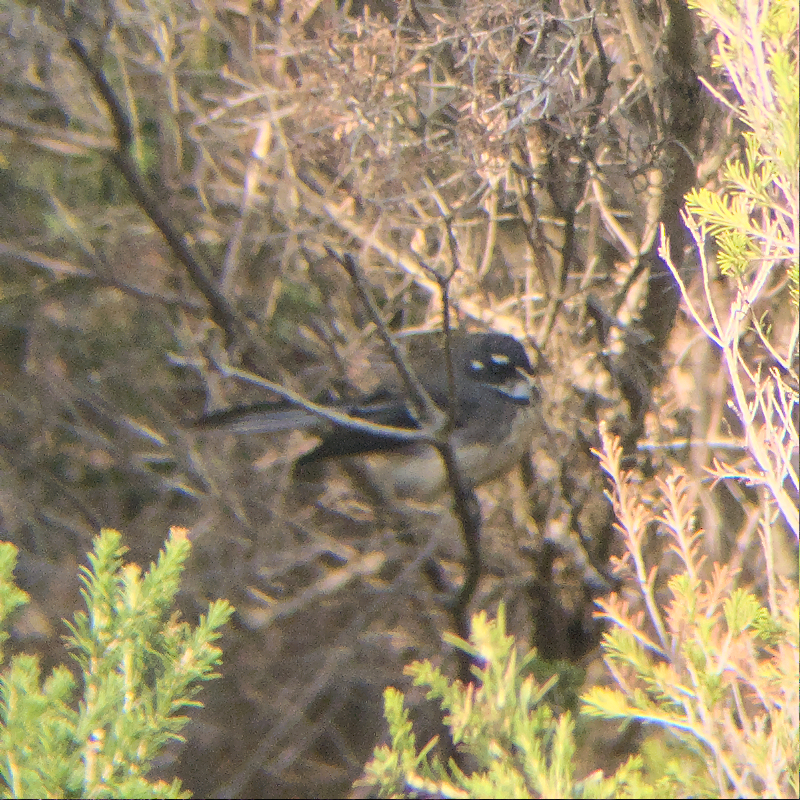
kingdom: Animalia
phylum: Chordata
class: Aves
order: Passeriformes
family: Rhipiduridae
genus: Rhipidura
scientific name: Rhipidura albiscapa
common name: Grey fantail
